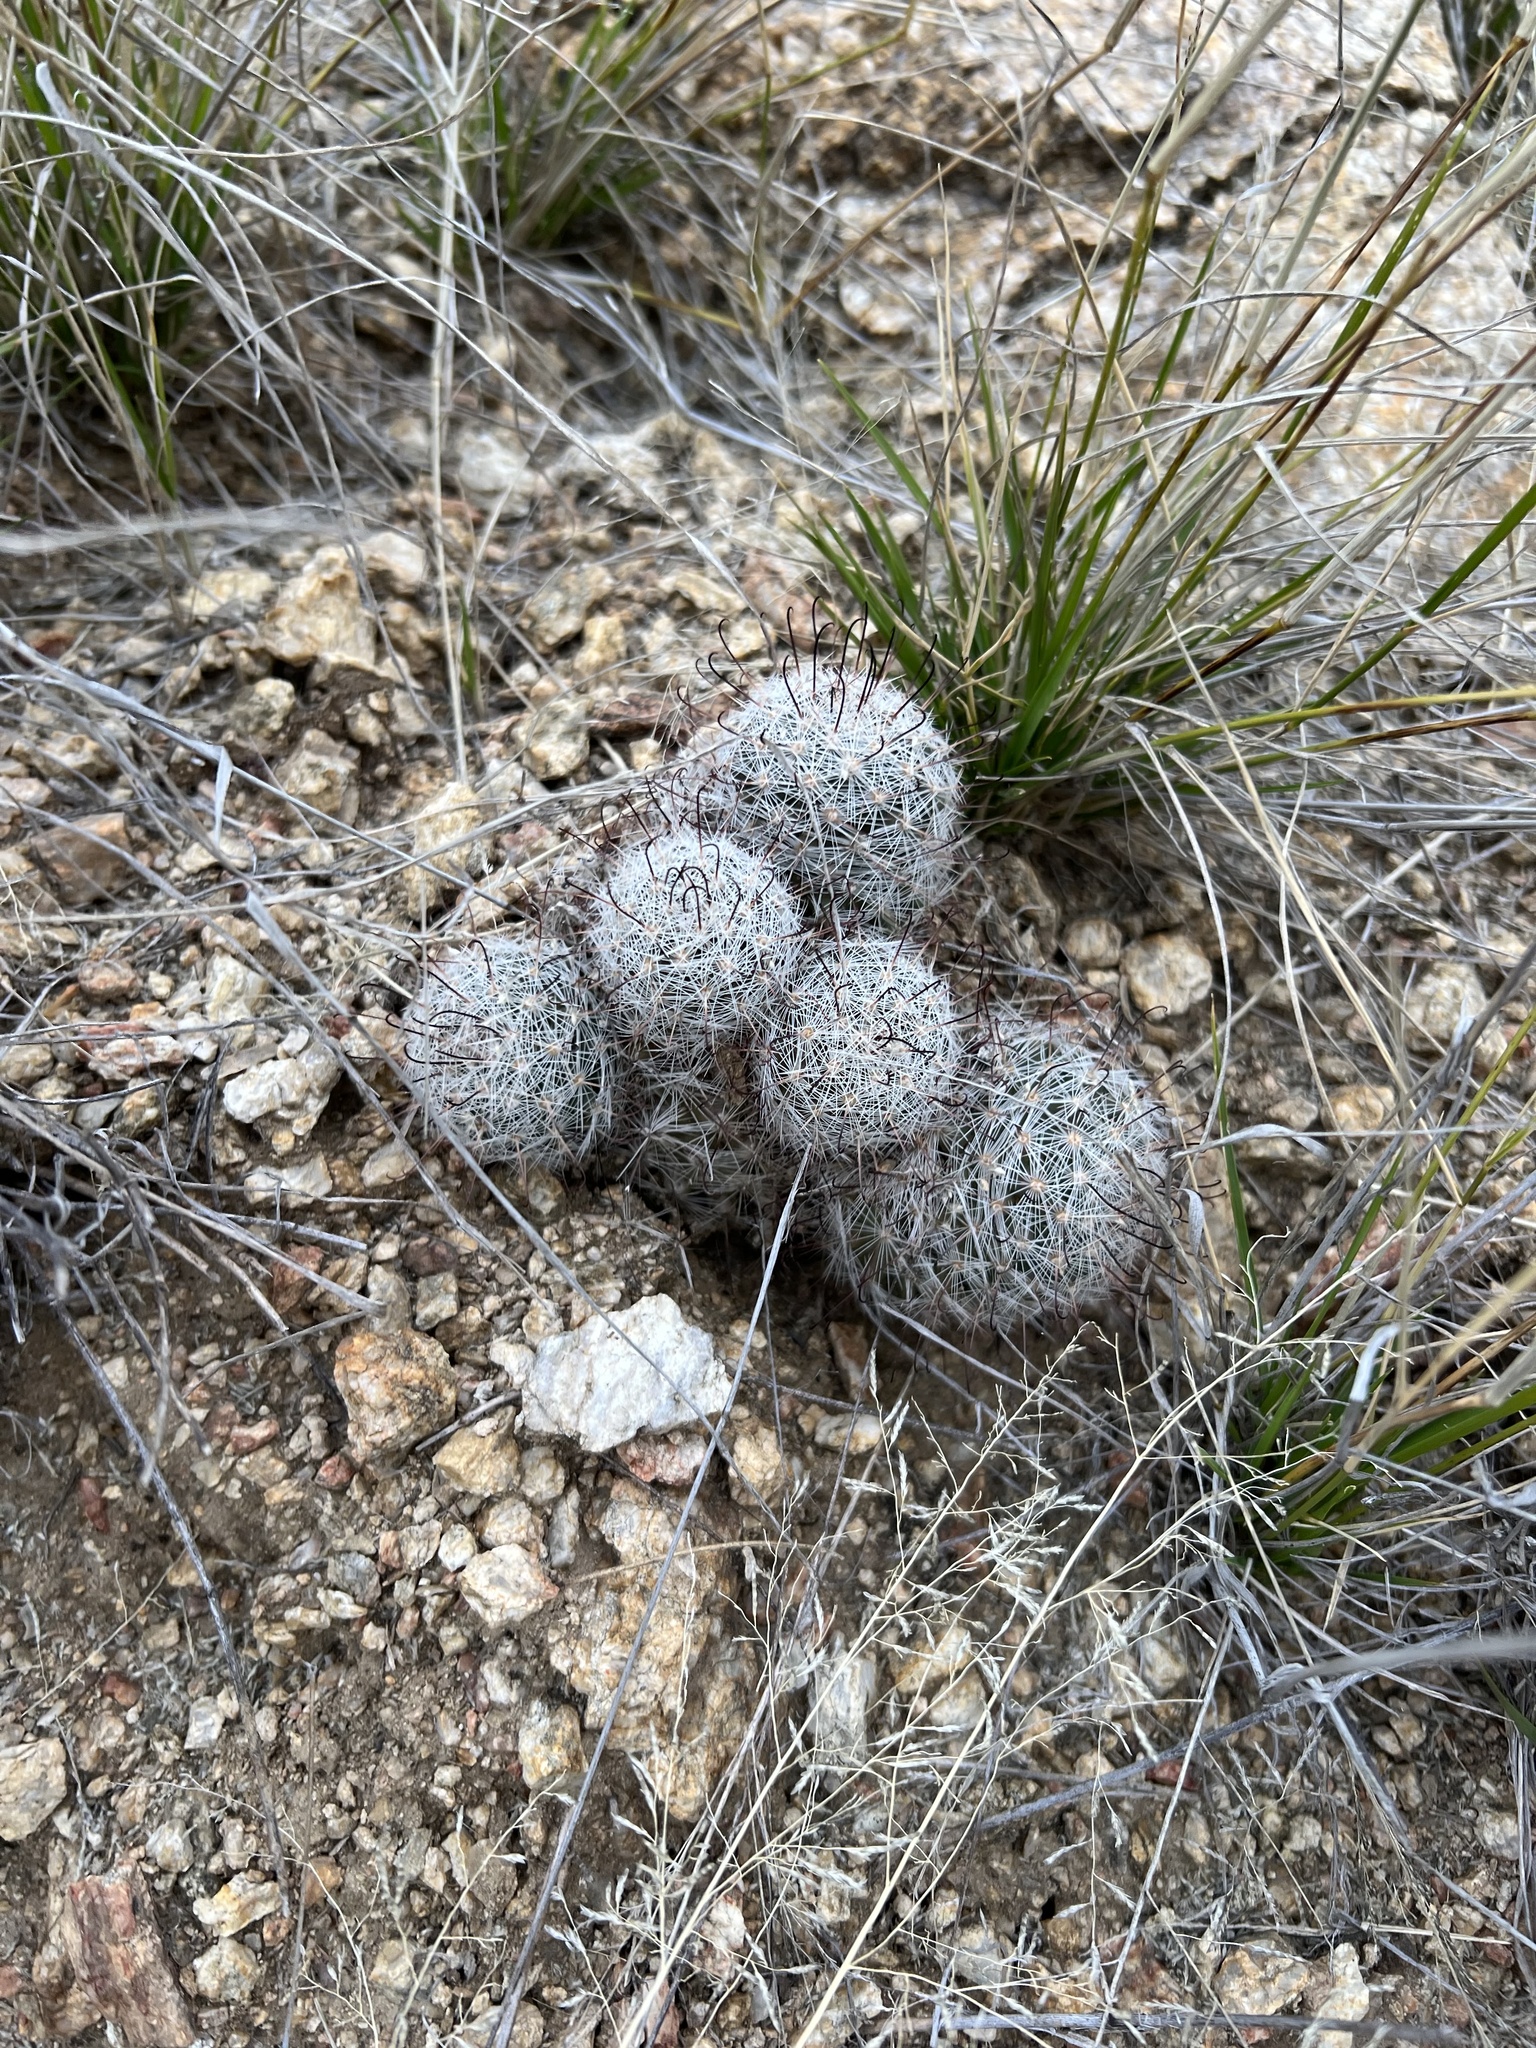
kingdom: Plantae
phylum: Tracheophyta
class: Magnoliopsida
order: Caryophyllales
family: Cactaceae
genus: Cochemiea
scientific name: Cochemiea grahamii
